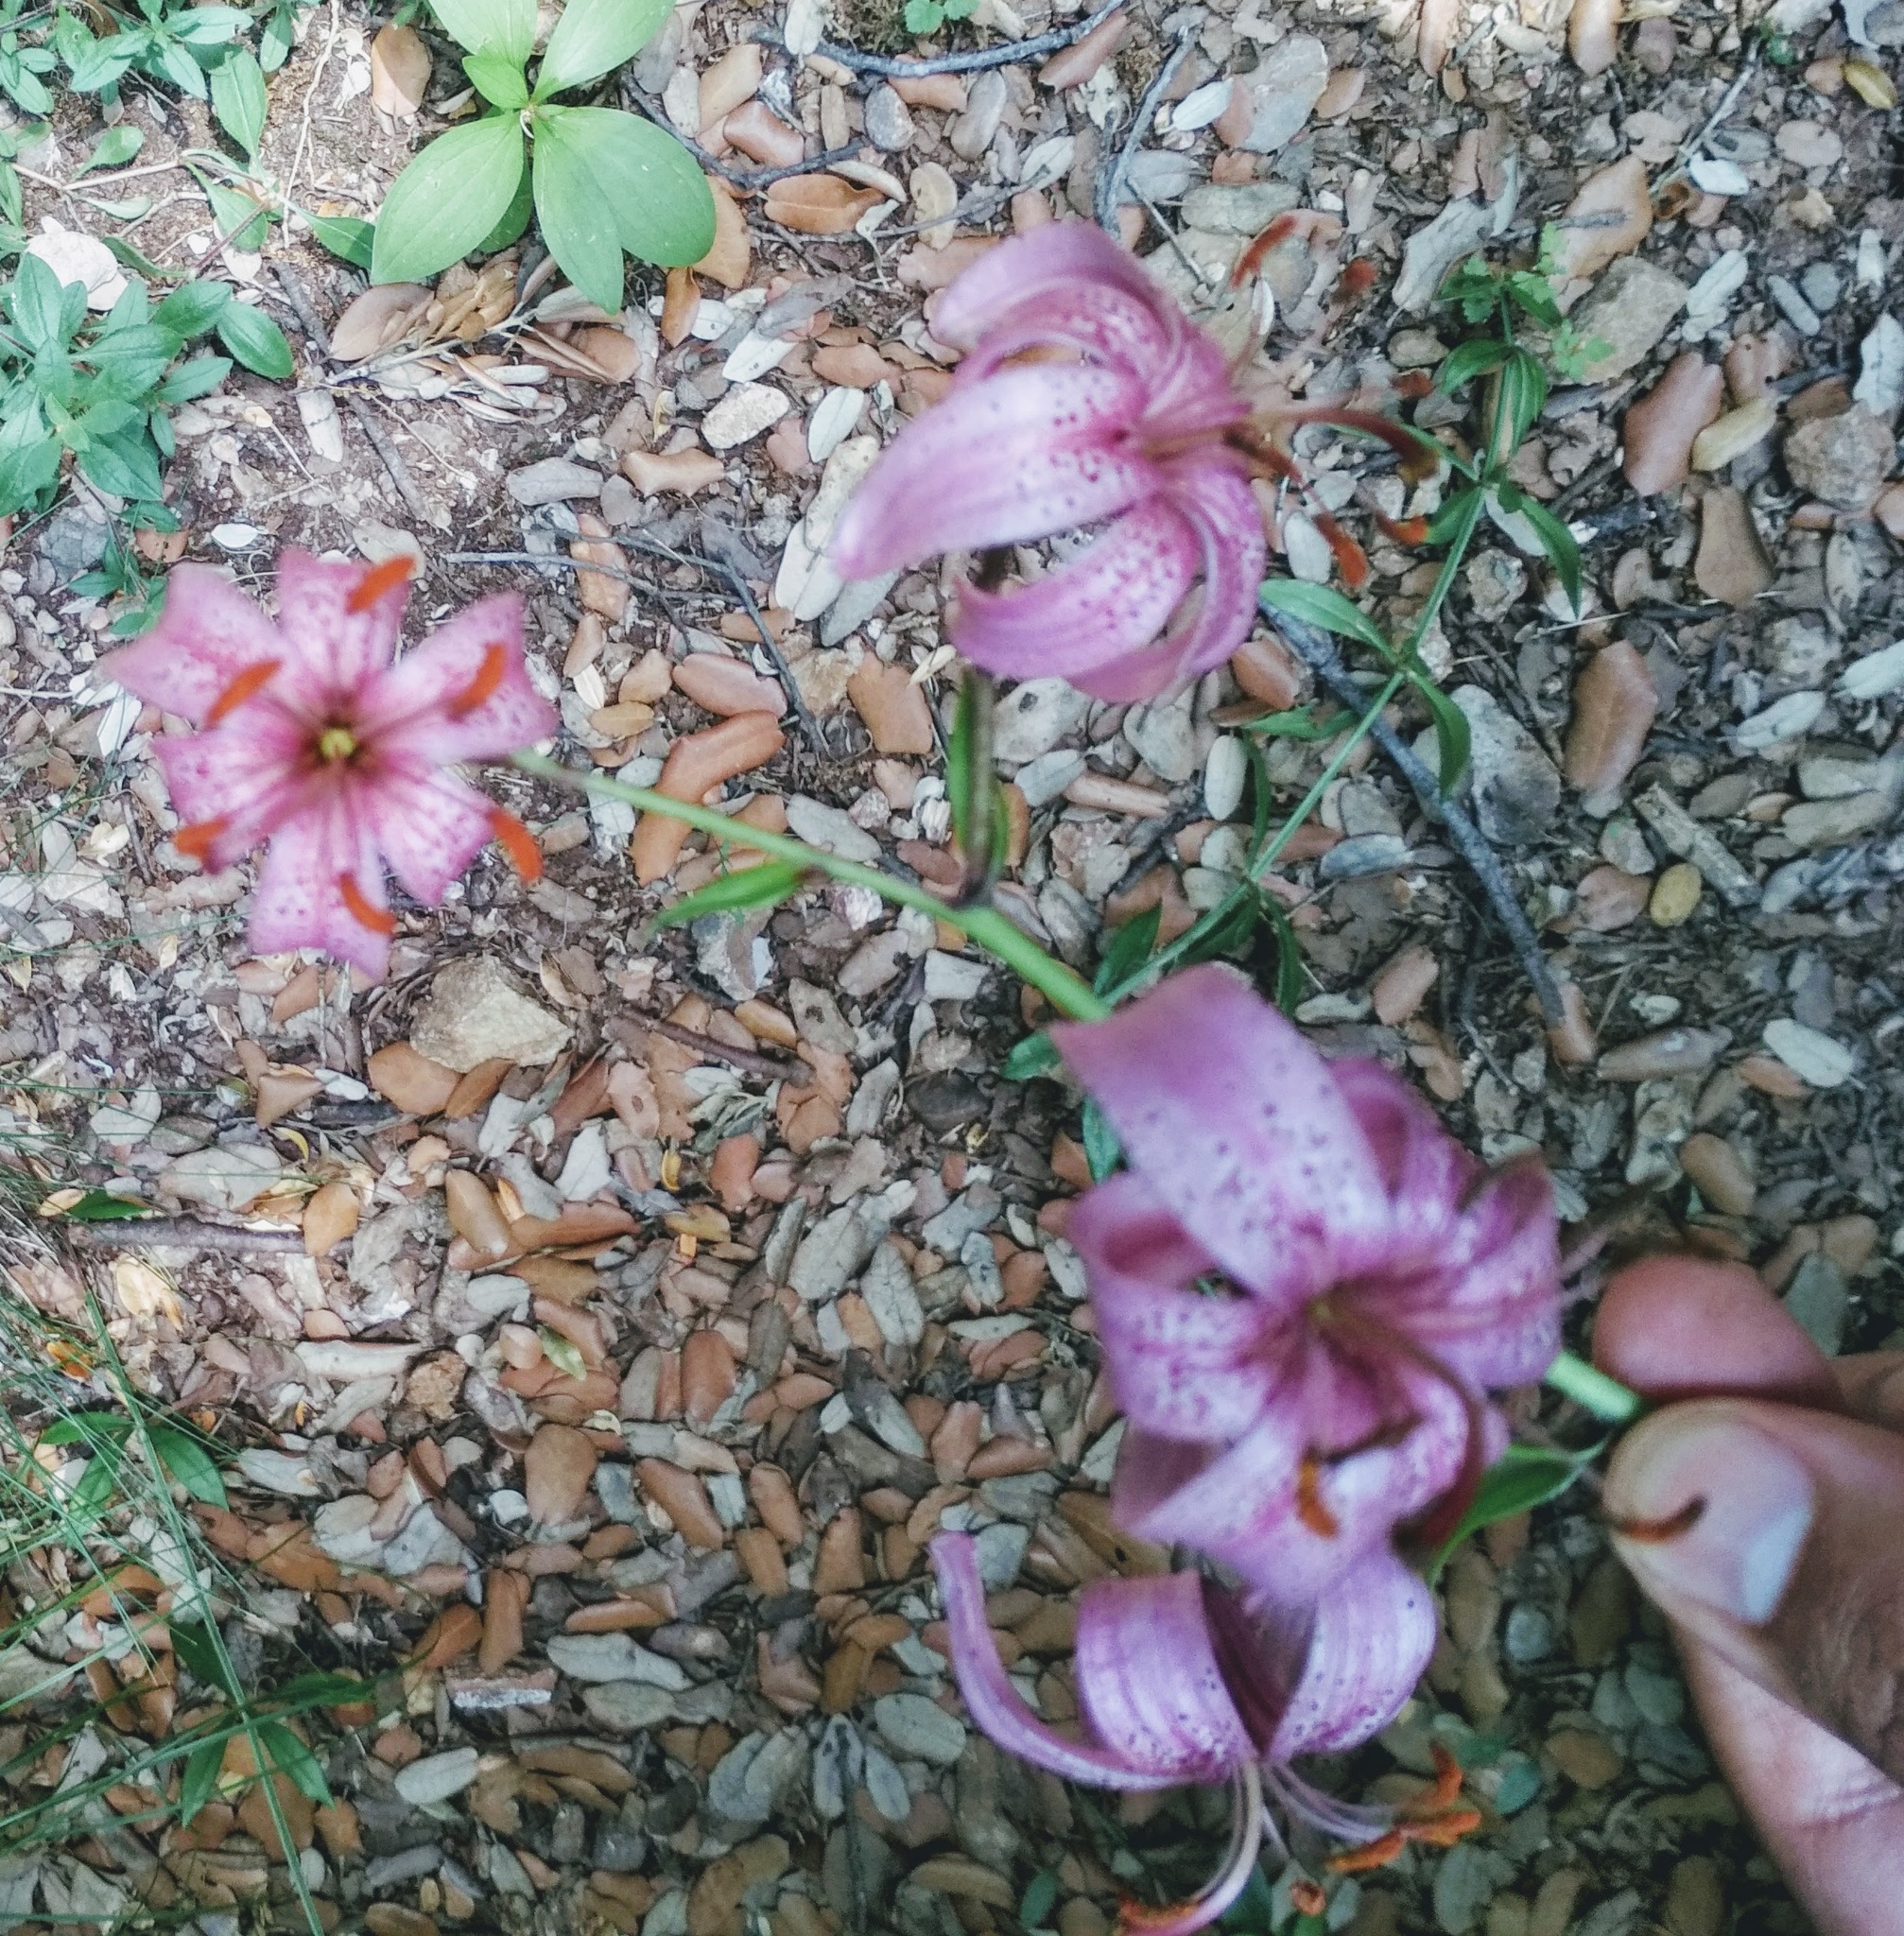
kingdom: Plantae
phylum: Tracheophyta
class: Liliopsida
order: Liliales
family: Liliaceae
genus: Lilium
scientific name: Lilium martagon
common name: Martagon lily
